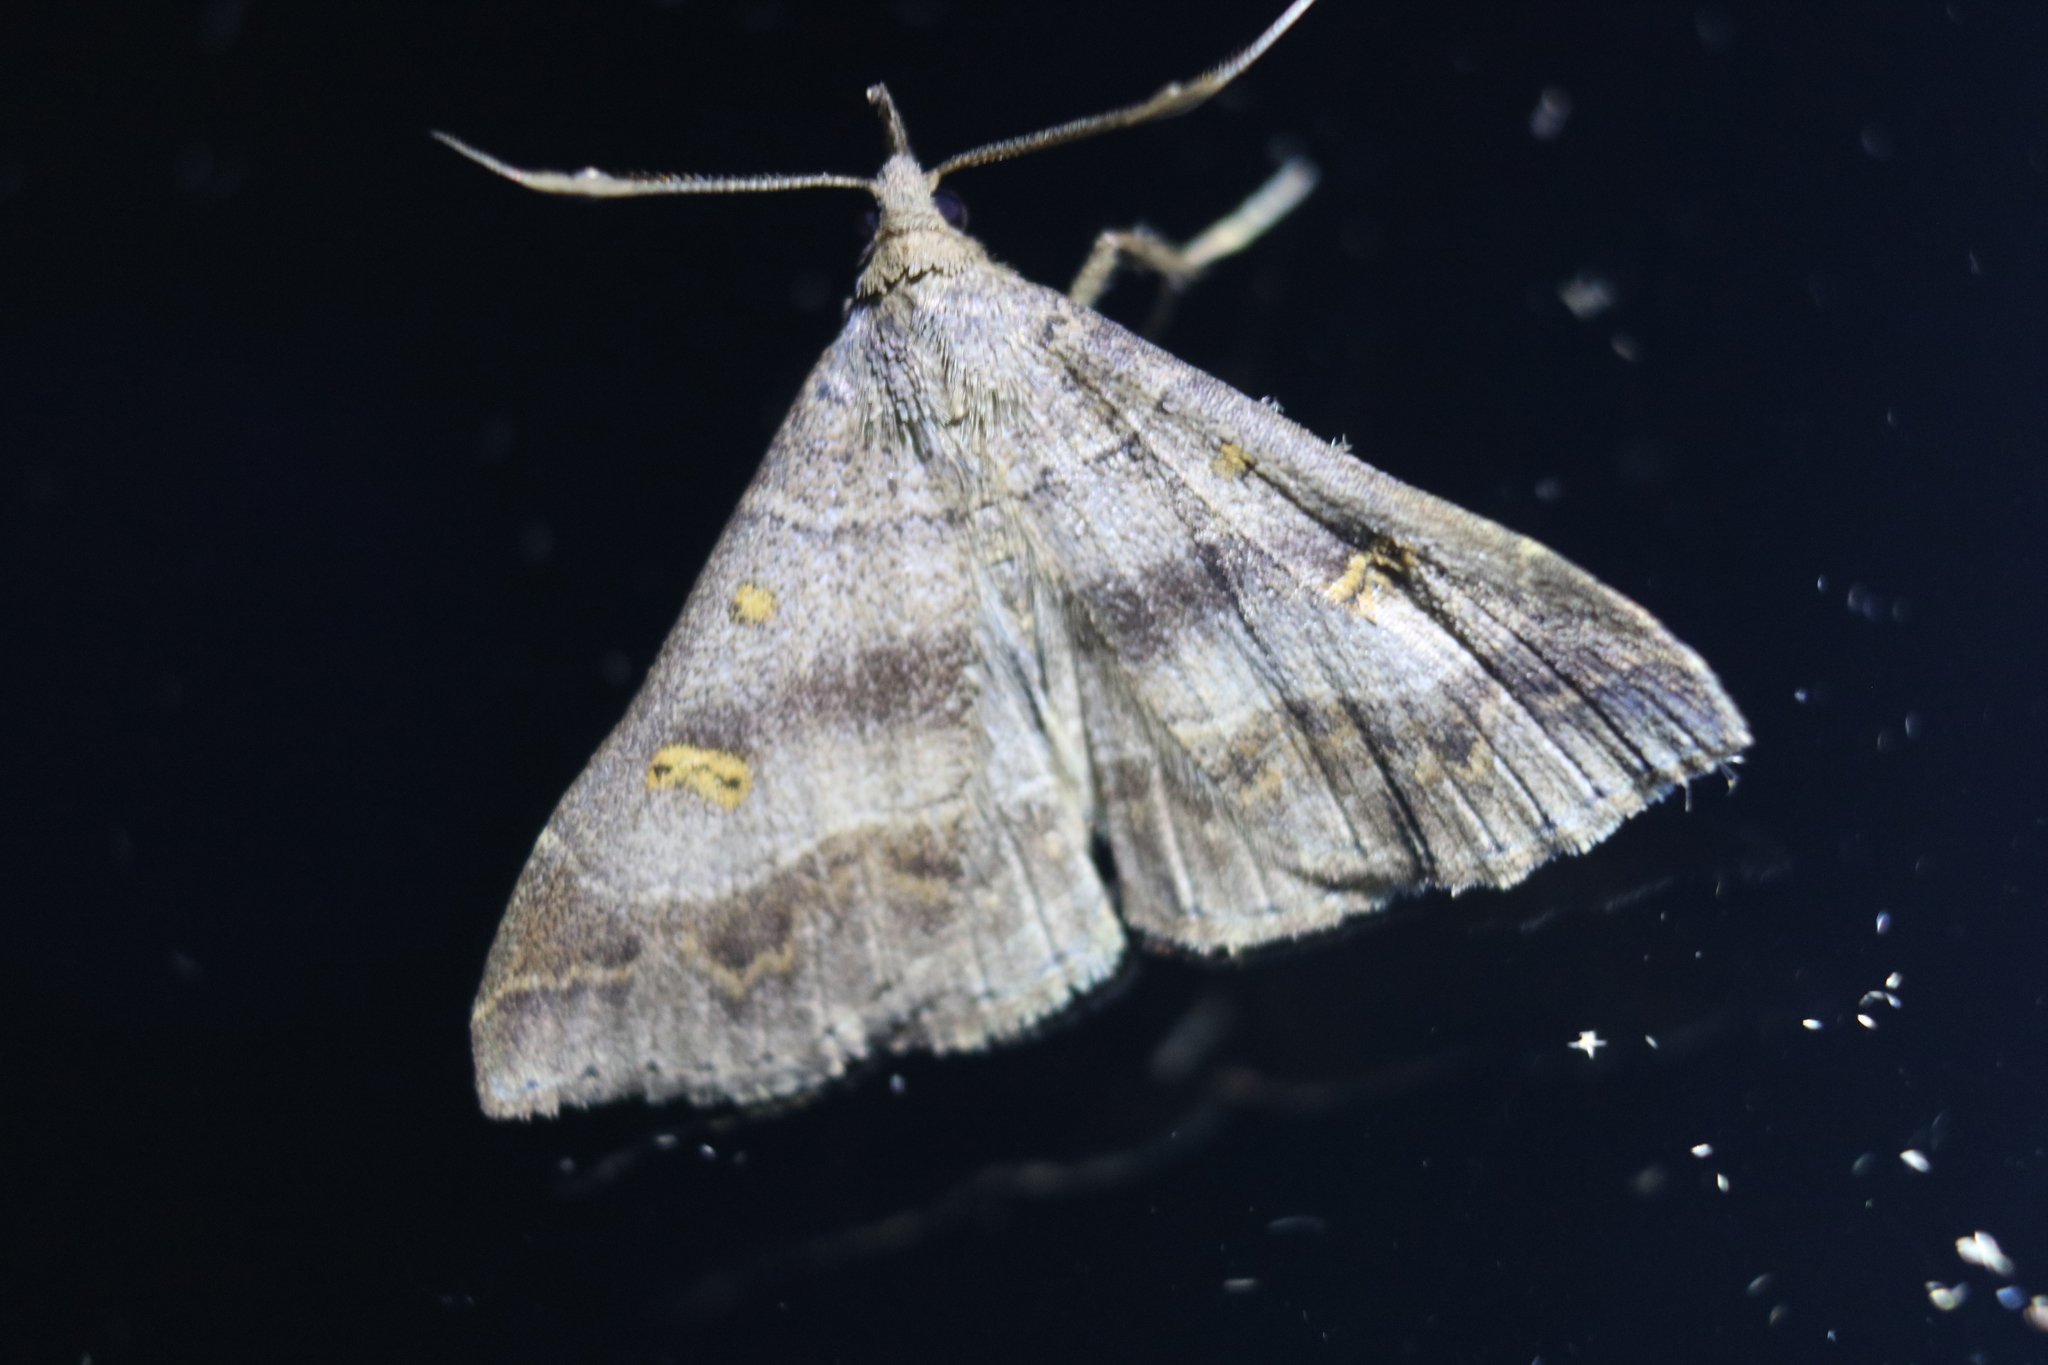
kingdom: Animalia
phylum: Arthropoda
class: Insecta
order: Lepidoptera
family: Erebidae
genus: Renia
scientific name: Renia flavipunctalis
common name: Yellow-spotted renia moth
